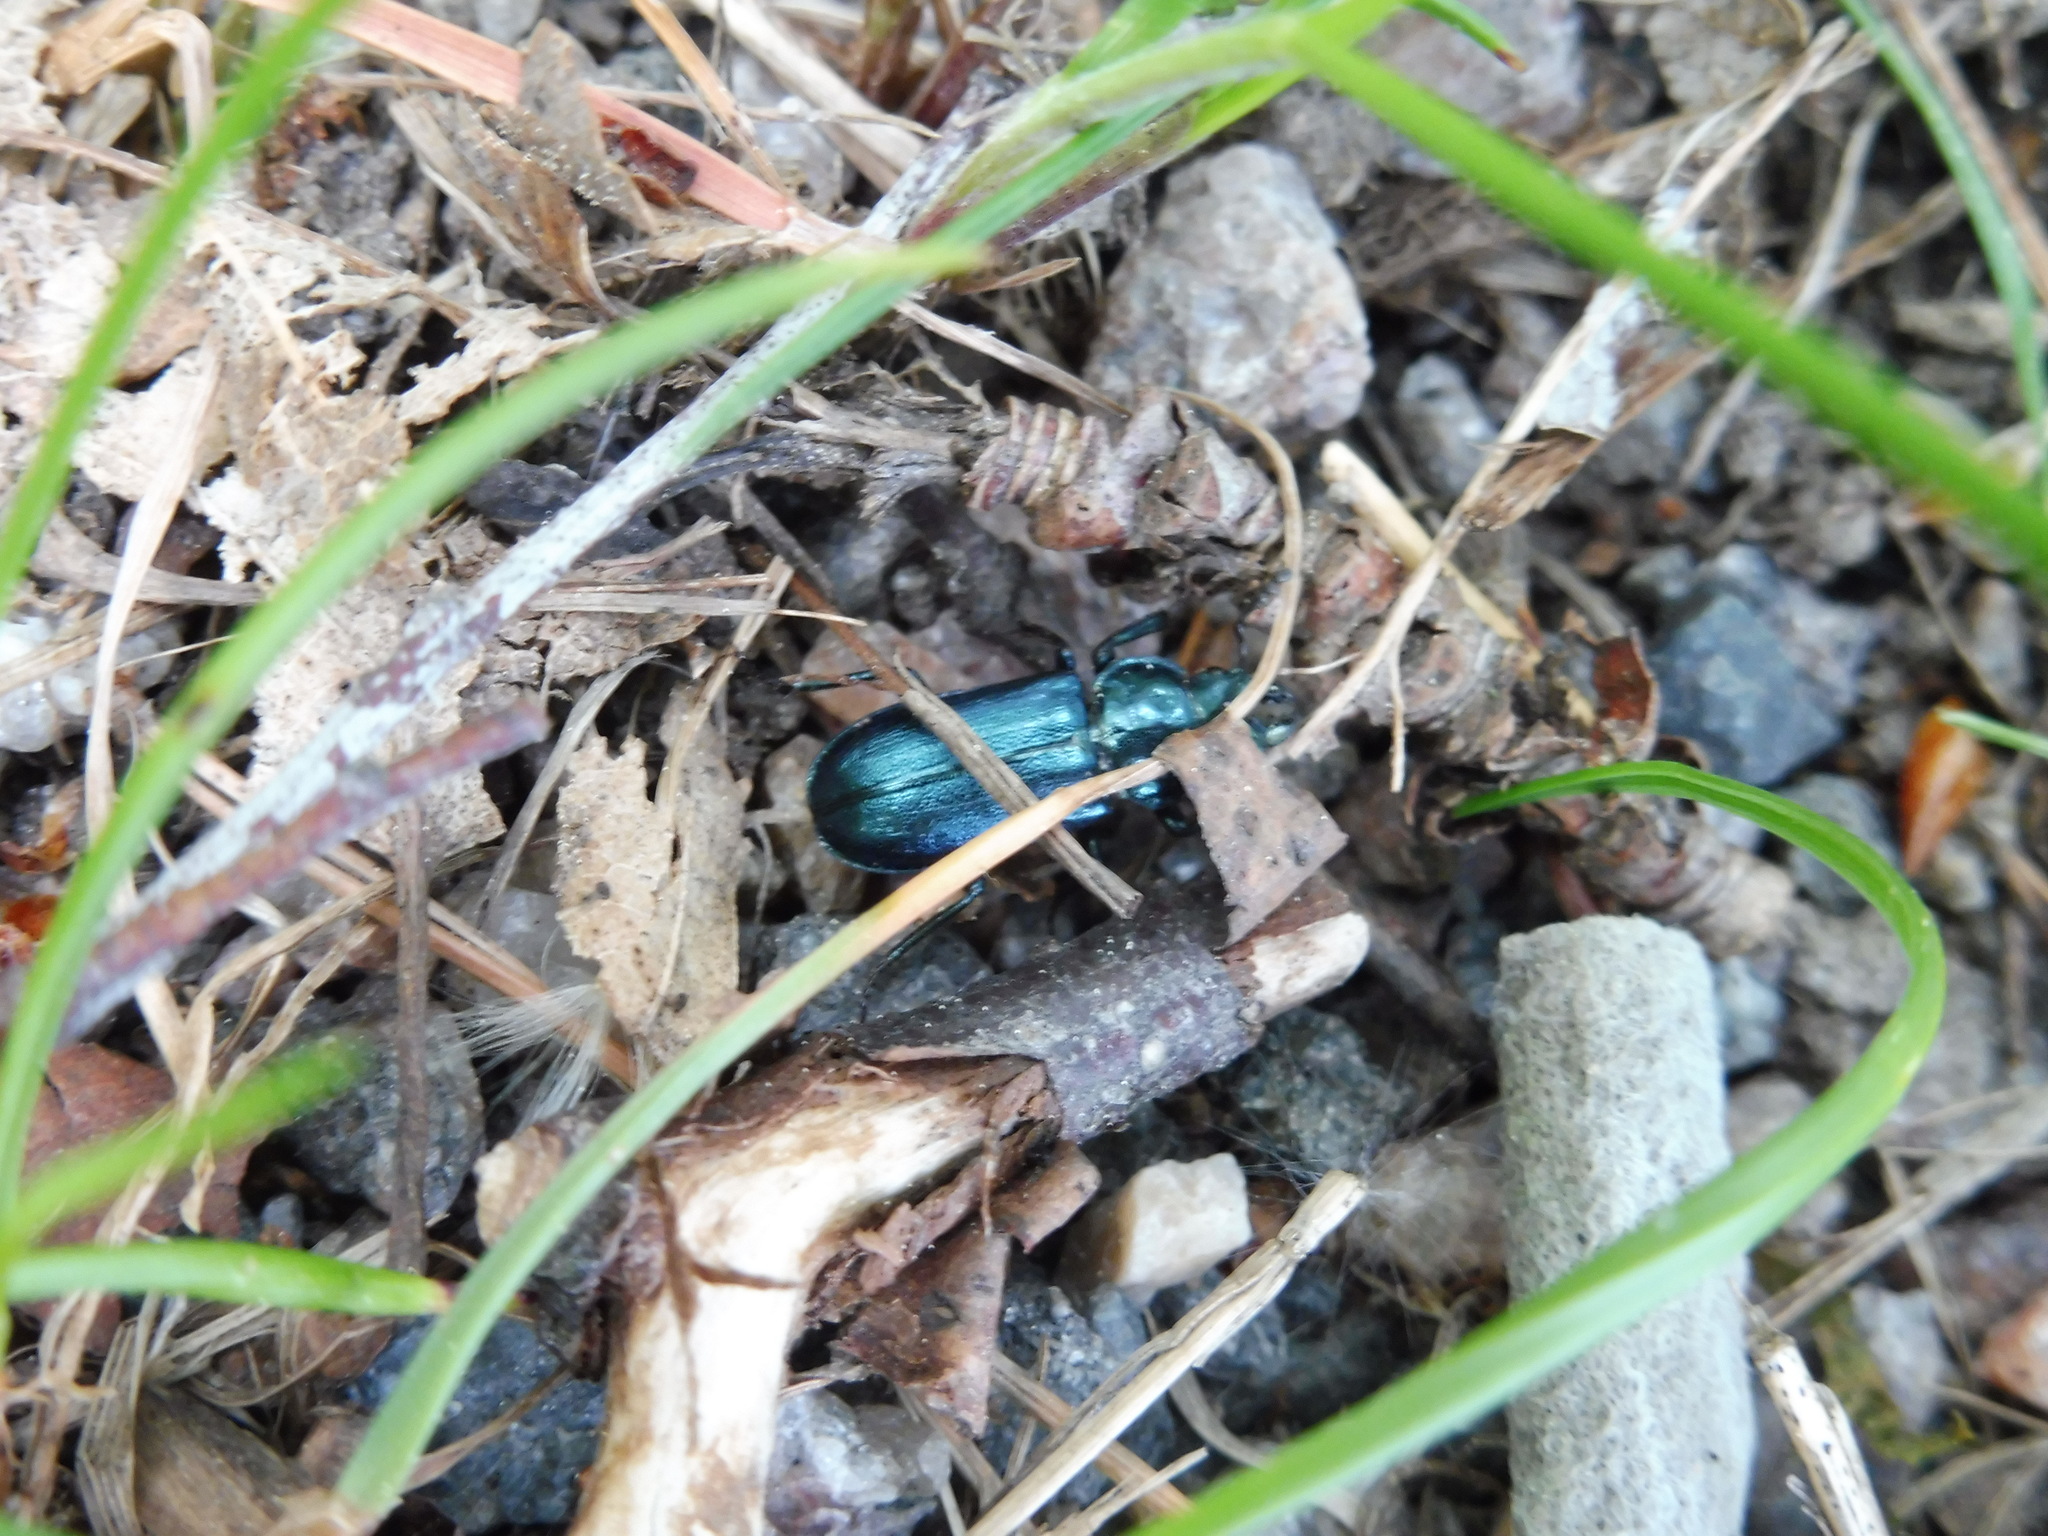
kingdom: Animalia
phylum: Arthropoda
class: Insecta
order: Coleoptera
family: Lucanidae
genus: Platycerus
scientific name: Platycerus caprea
